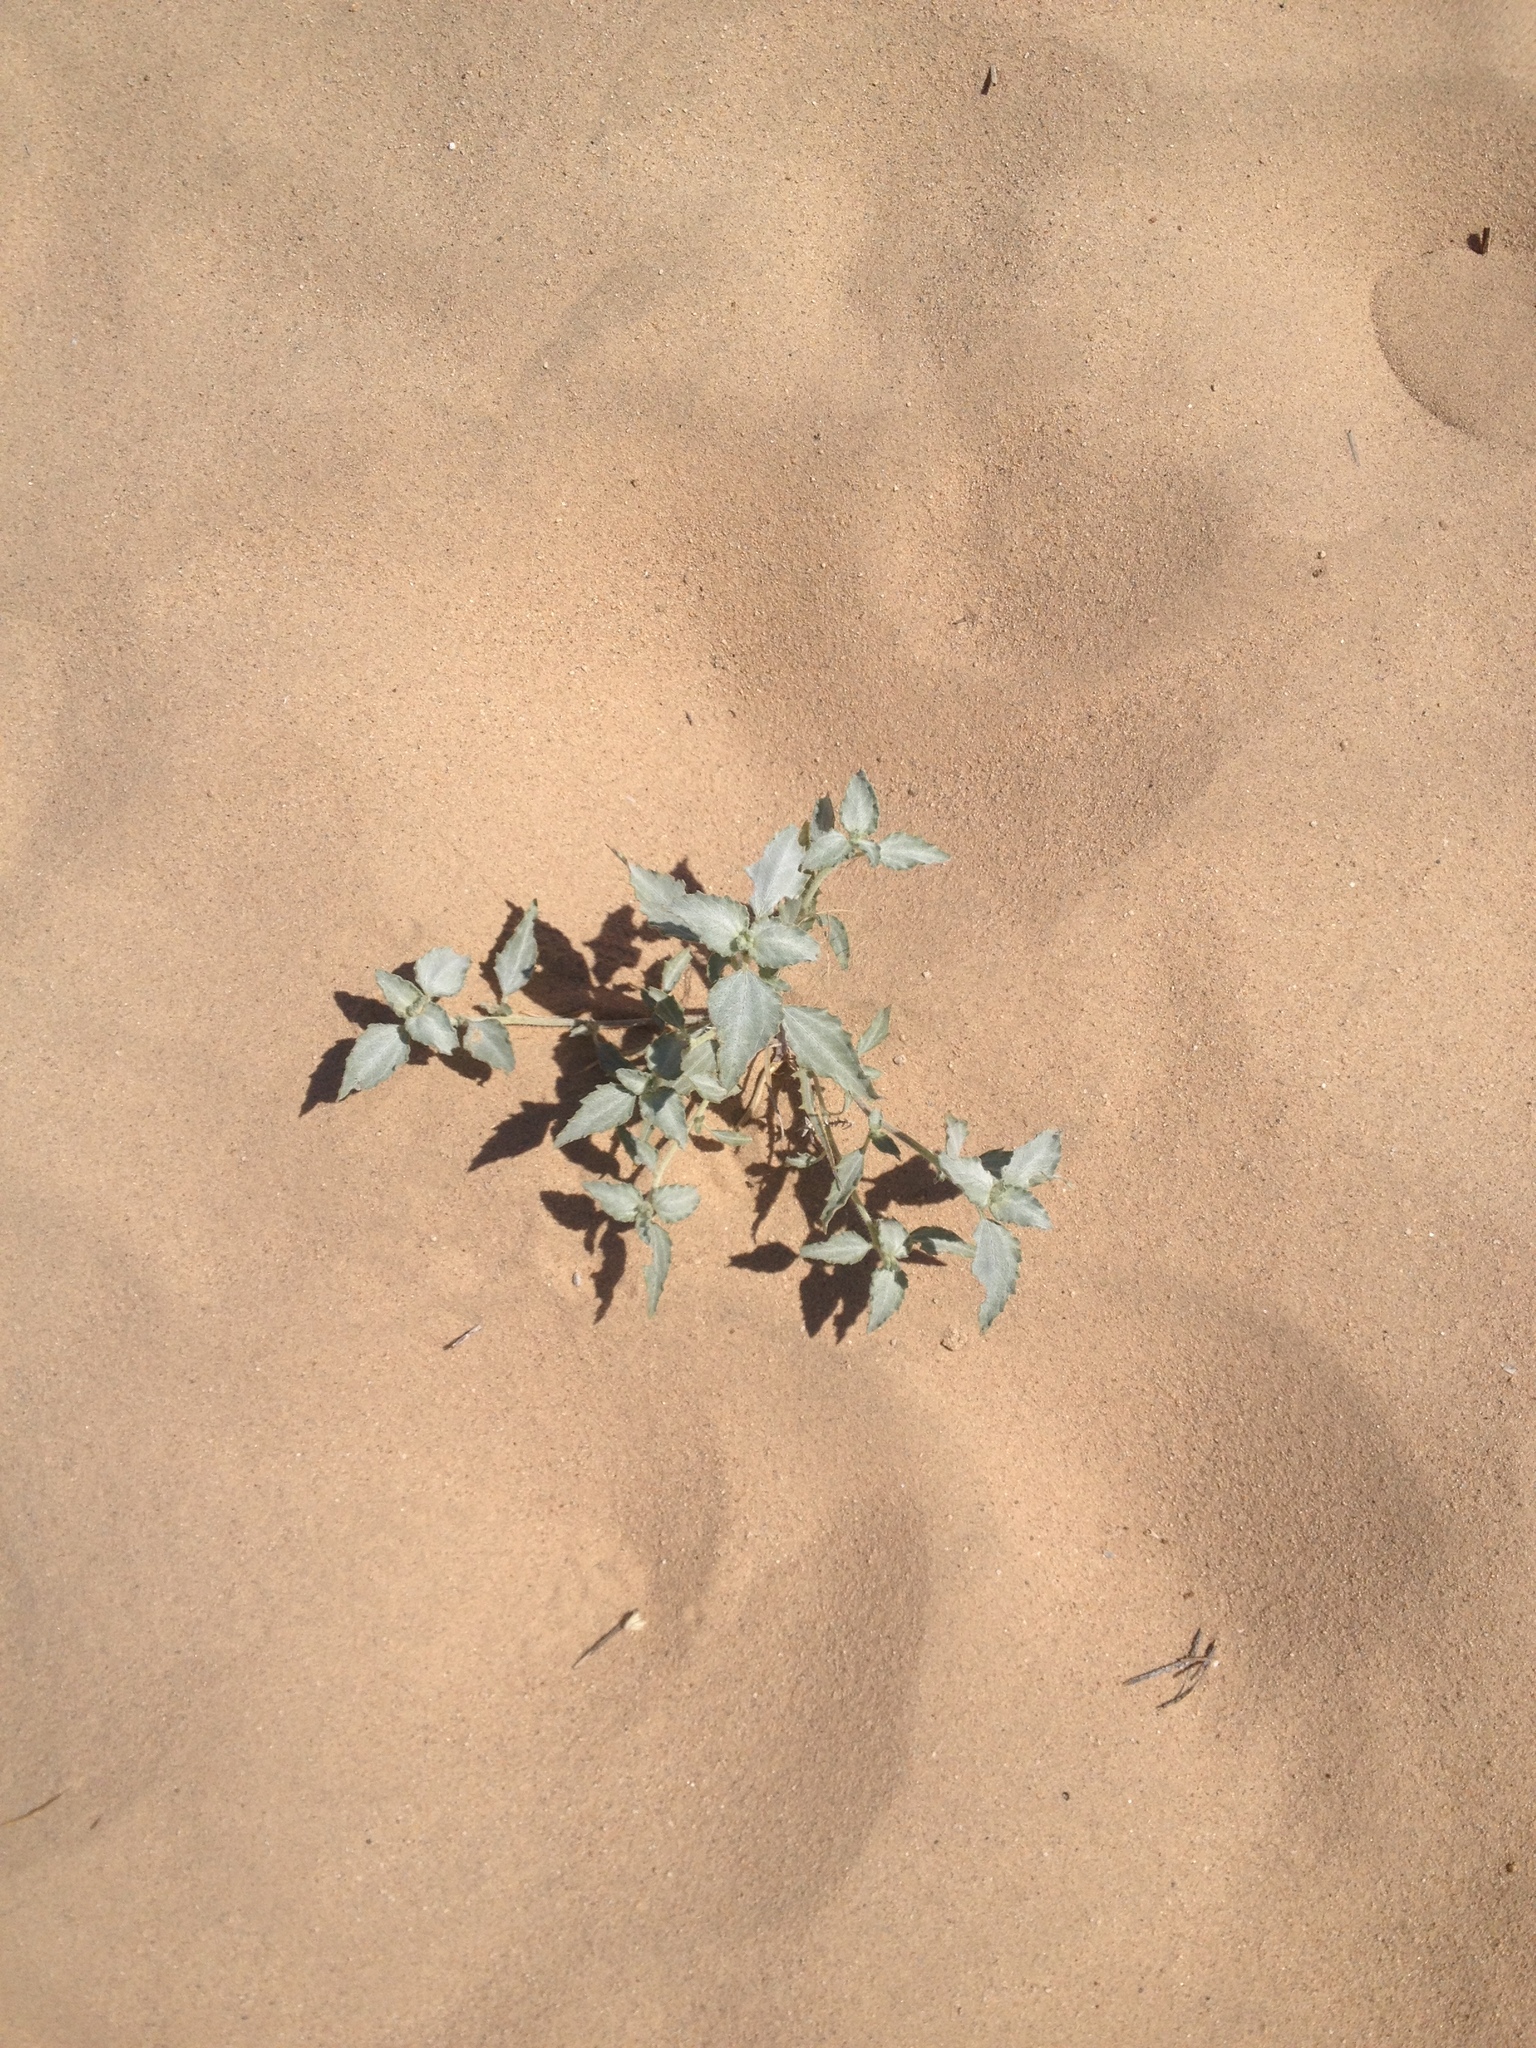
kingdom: Plantae
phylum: Tracheophyta
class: Magnoliopsida
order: Asterales
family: Asteraceae
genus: Dicoria
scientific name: Dicoria canescens
